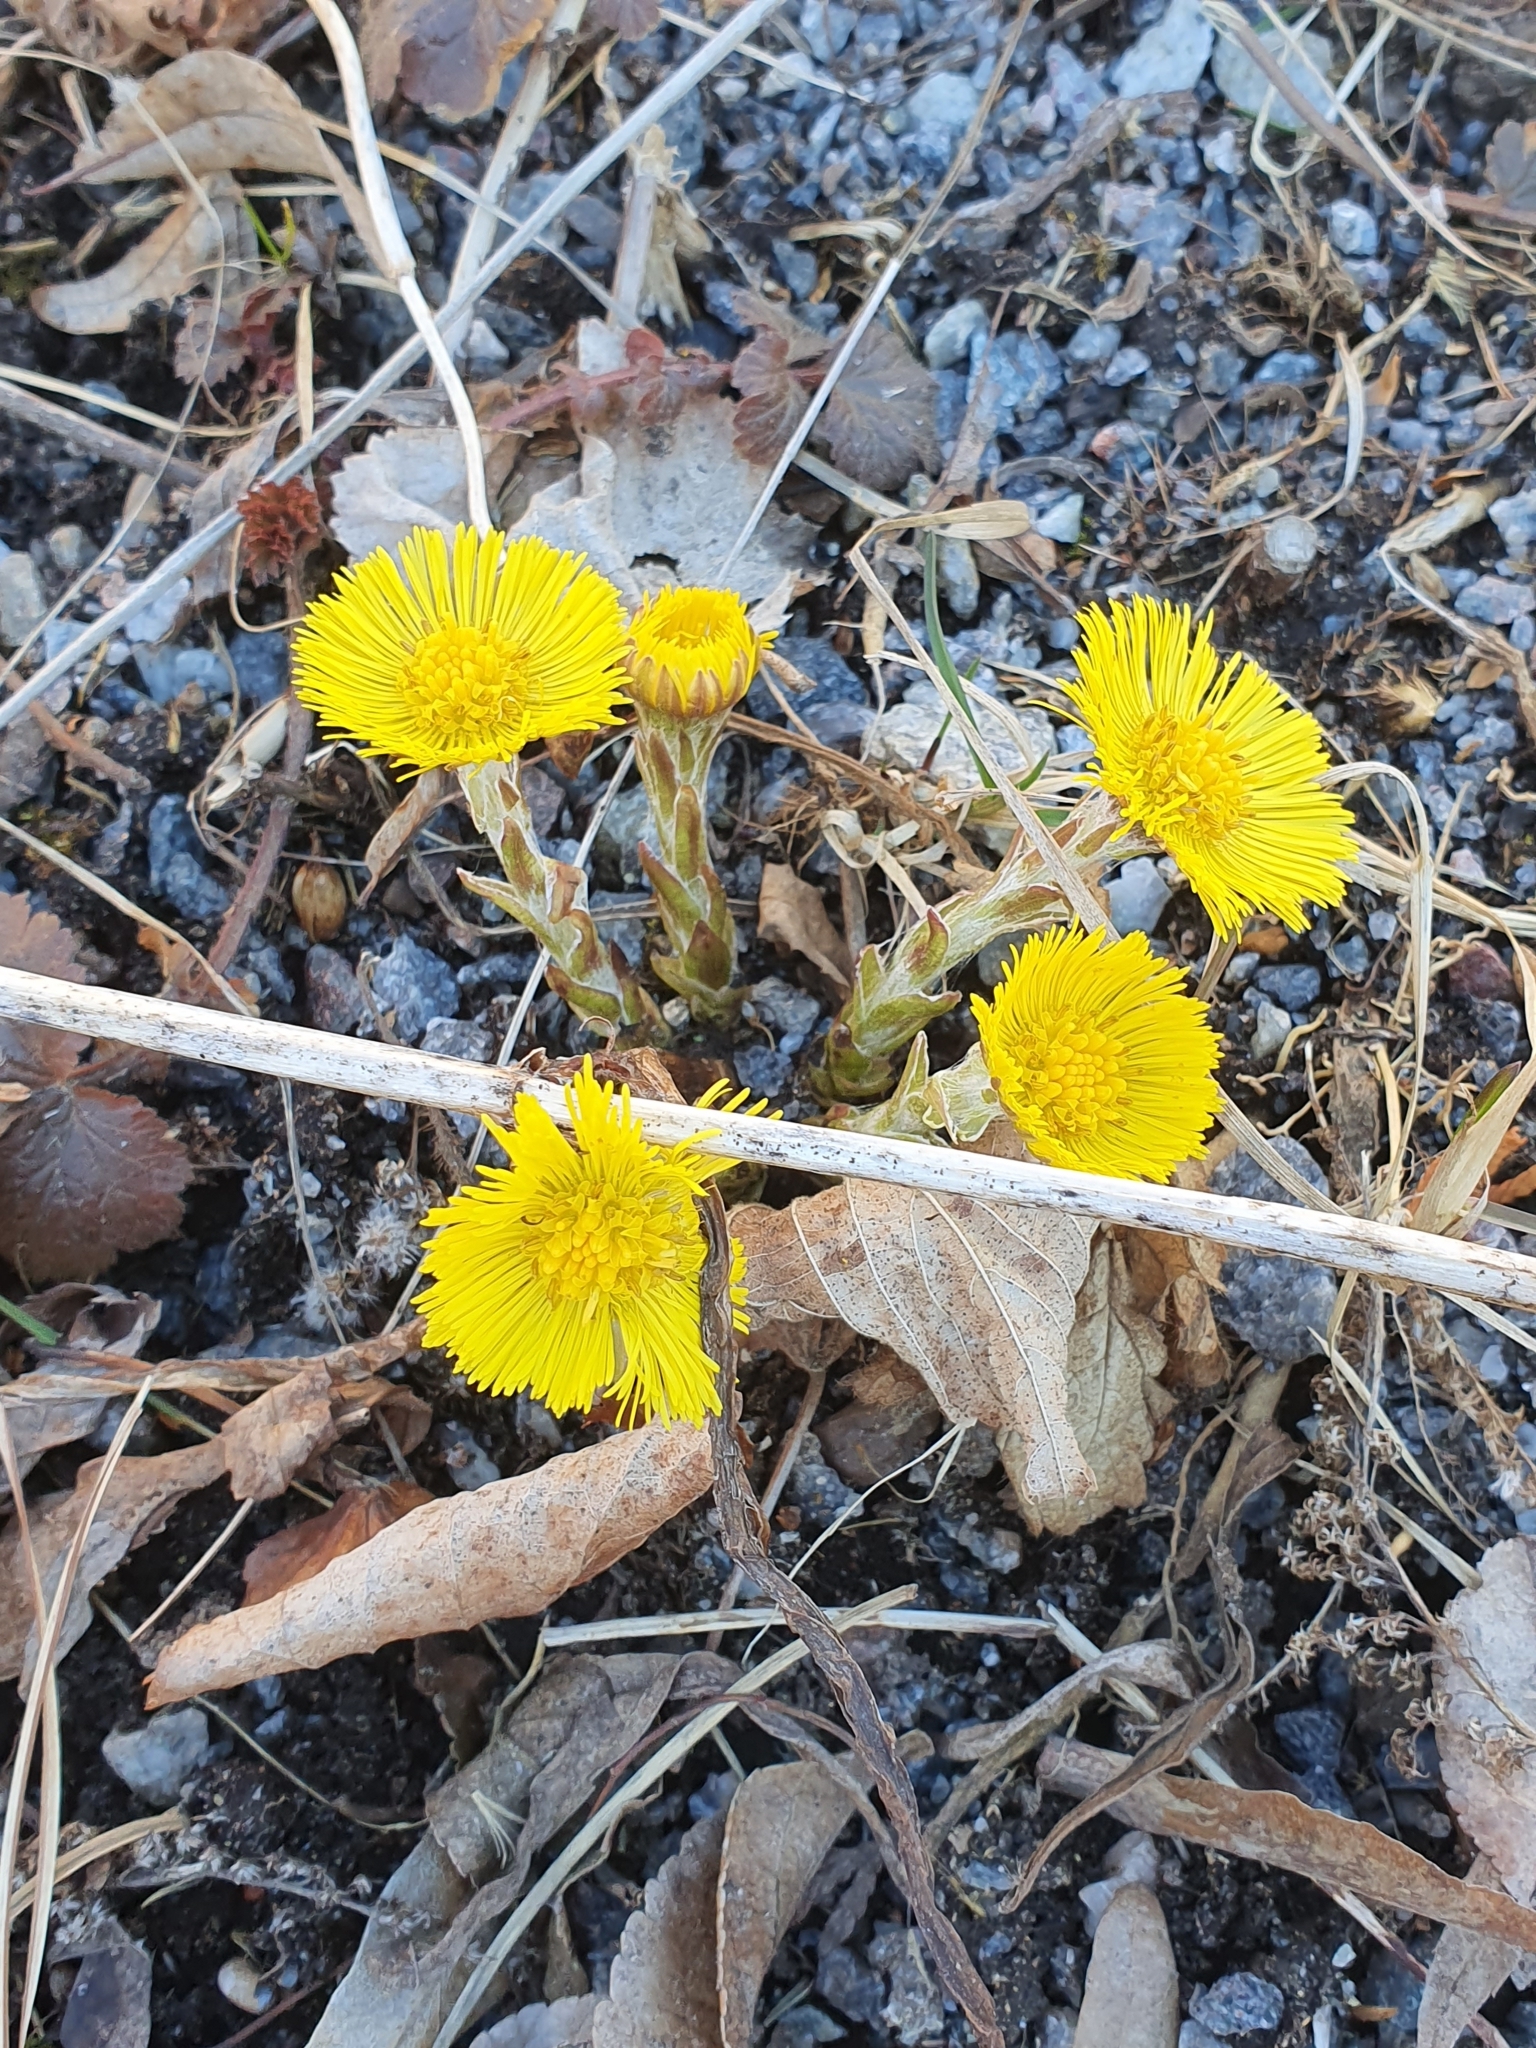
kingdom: Plantae
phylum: Tracheophyta
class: Magnoliopsida
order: Asterales
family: Asteraceae
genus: Tussilago
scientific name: Tussilago farfara
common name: Coltsfoot
